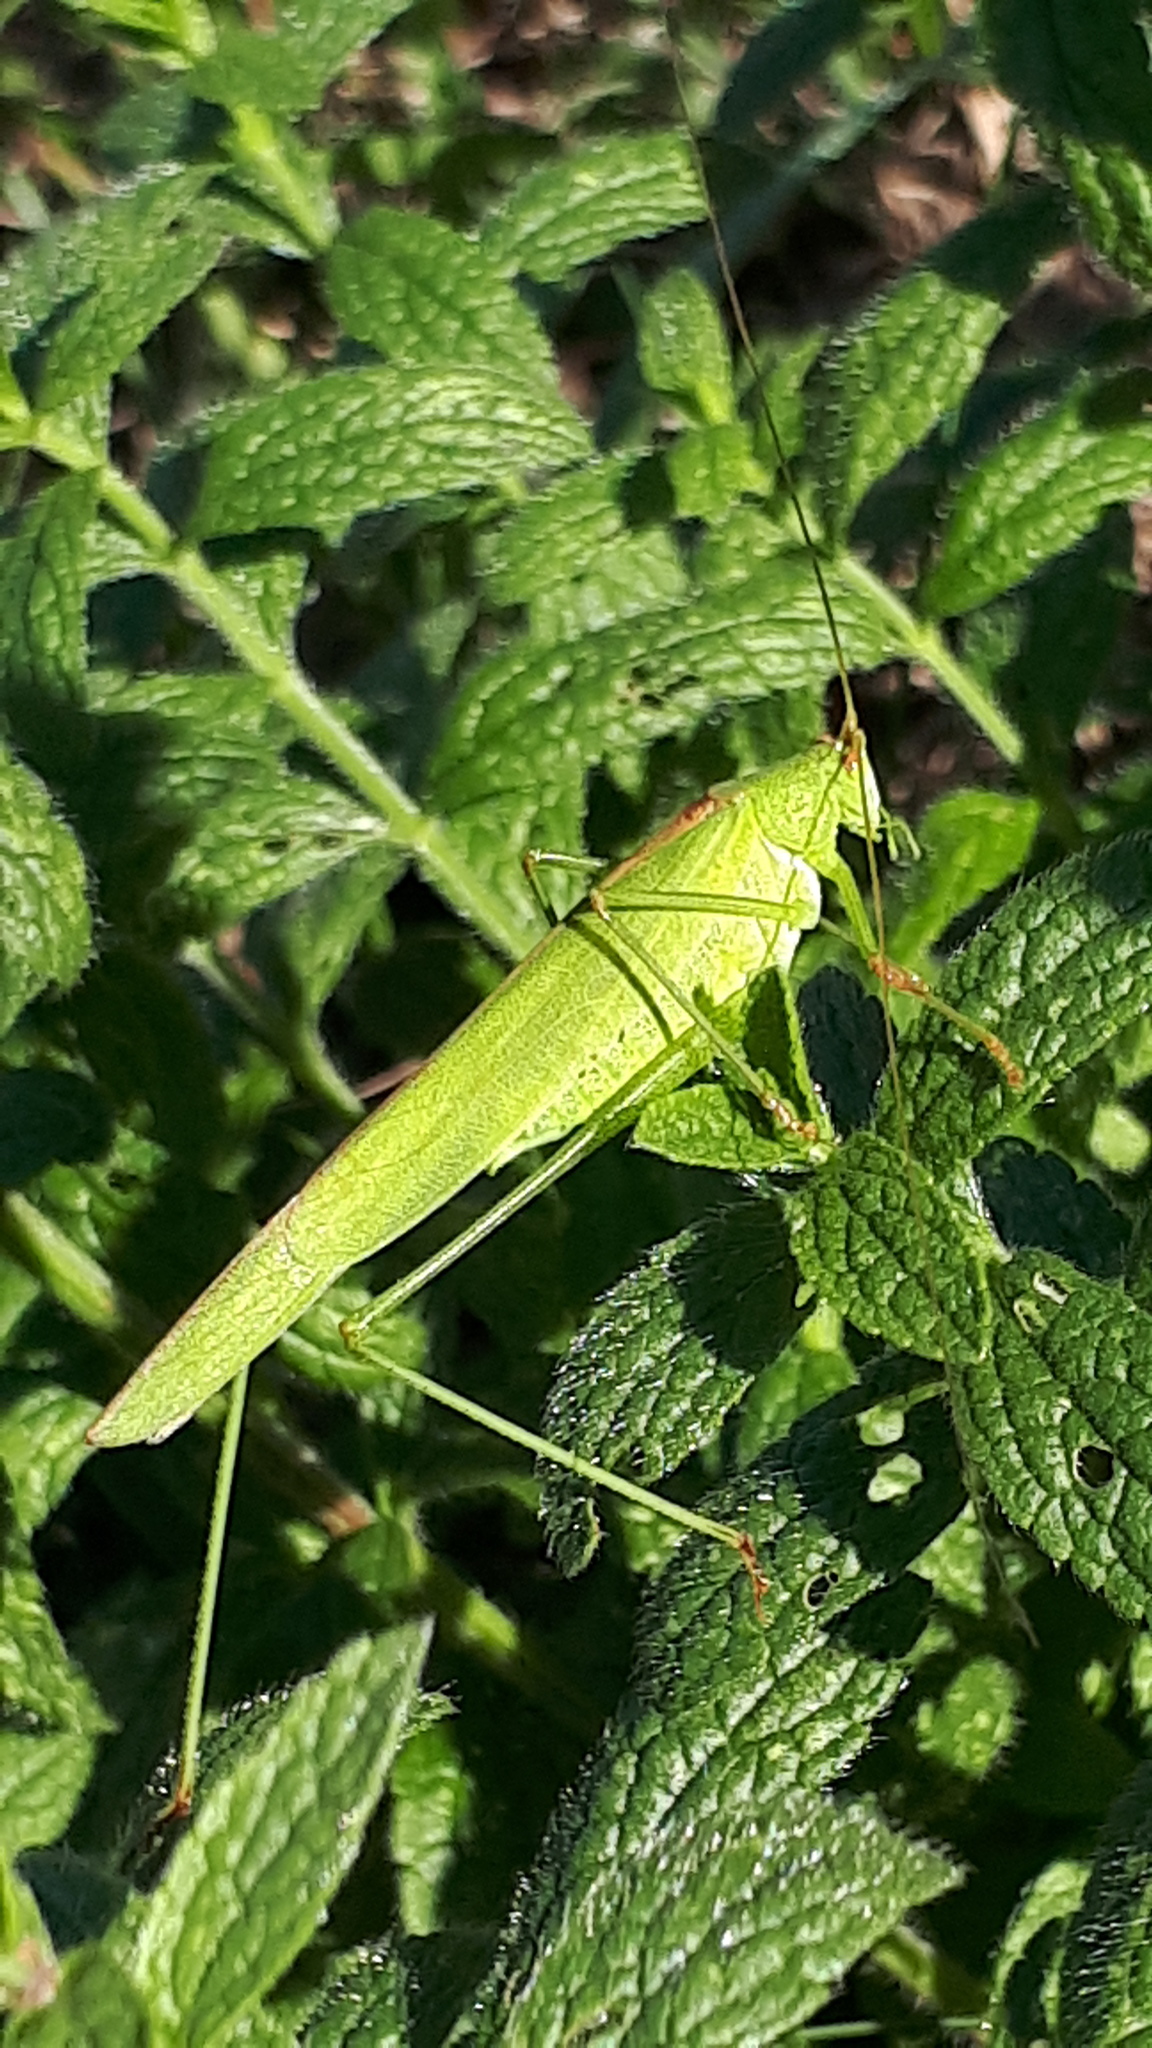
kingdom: Animalia
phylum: Arthropoda
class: Insecta
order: Orthoptera
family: Tettigoniidae
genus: Phaneroptera
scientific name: Phaneroptera falcata
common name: Sickle-bearing bush-cricket
